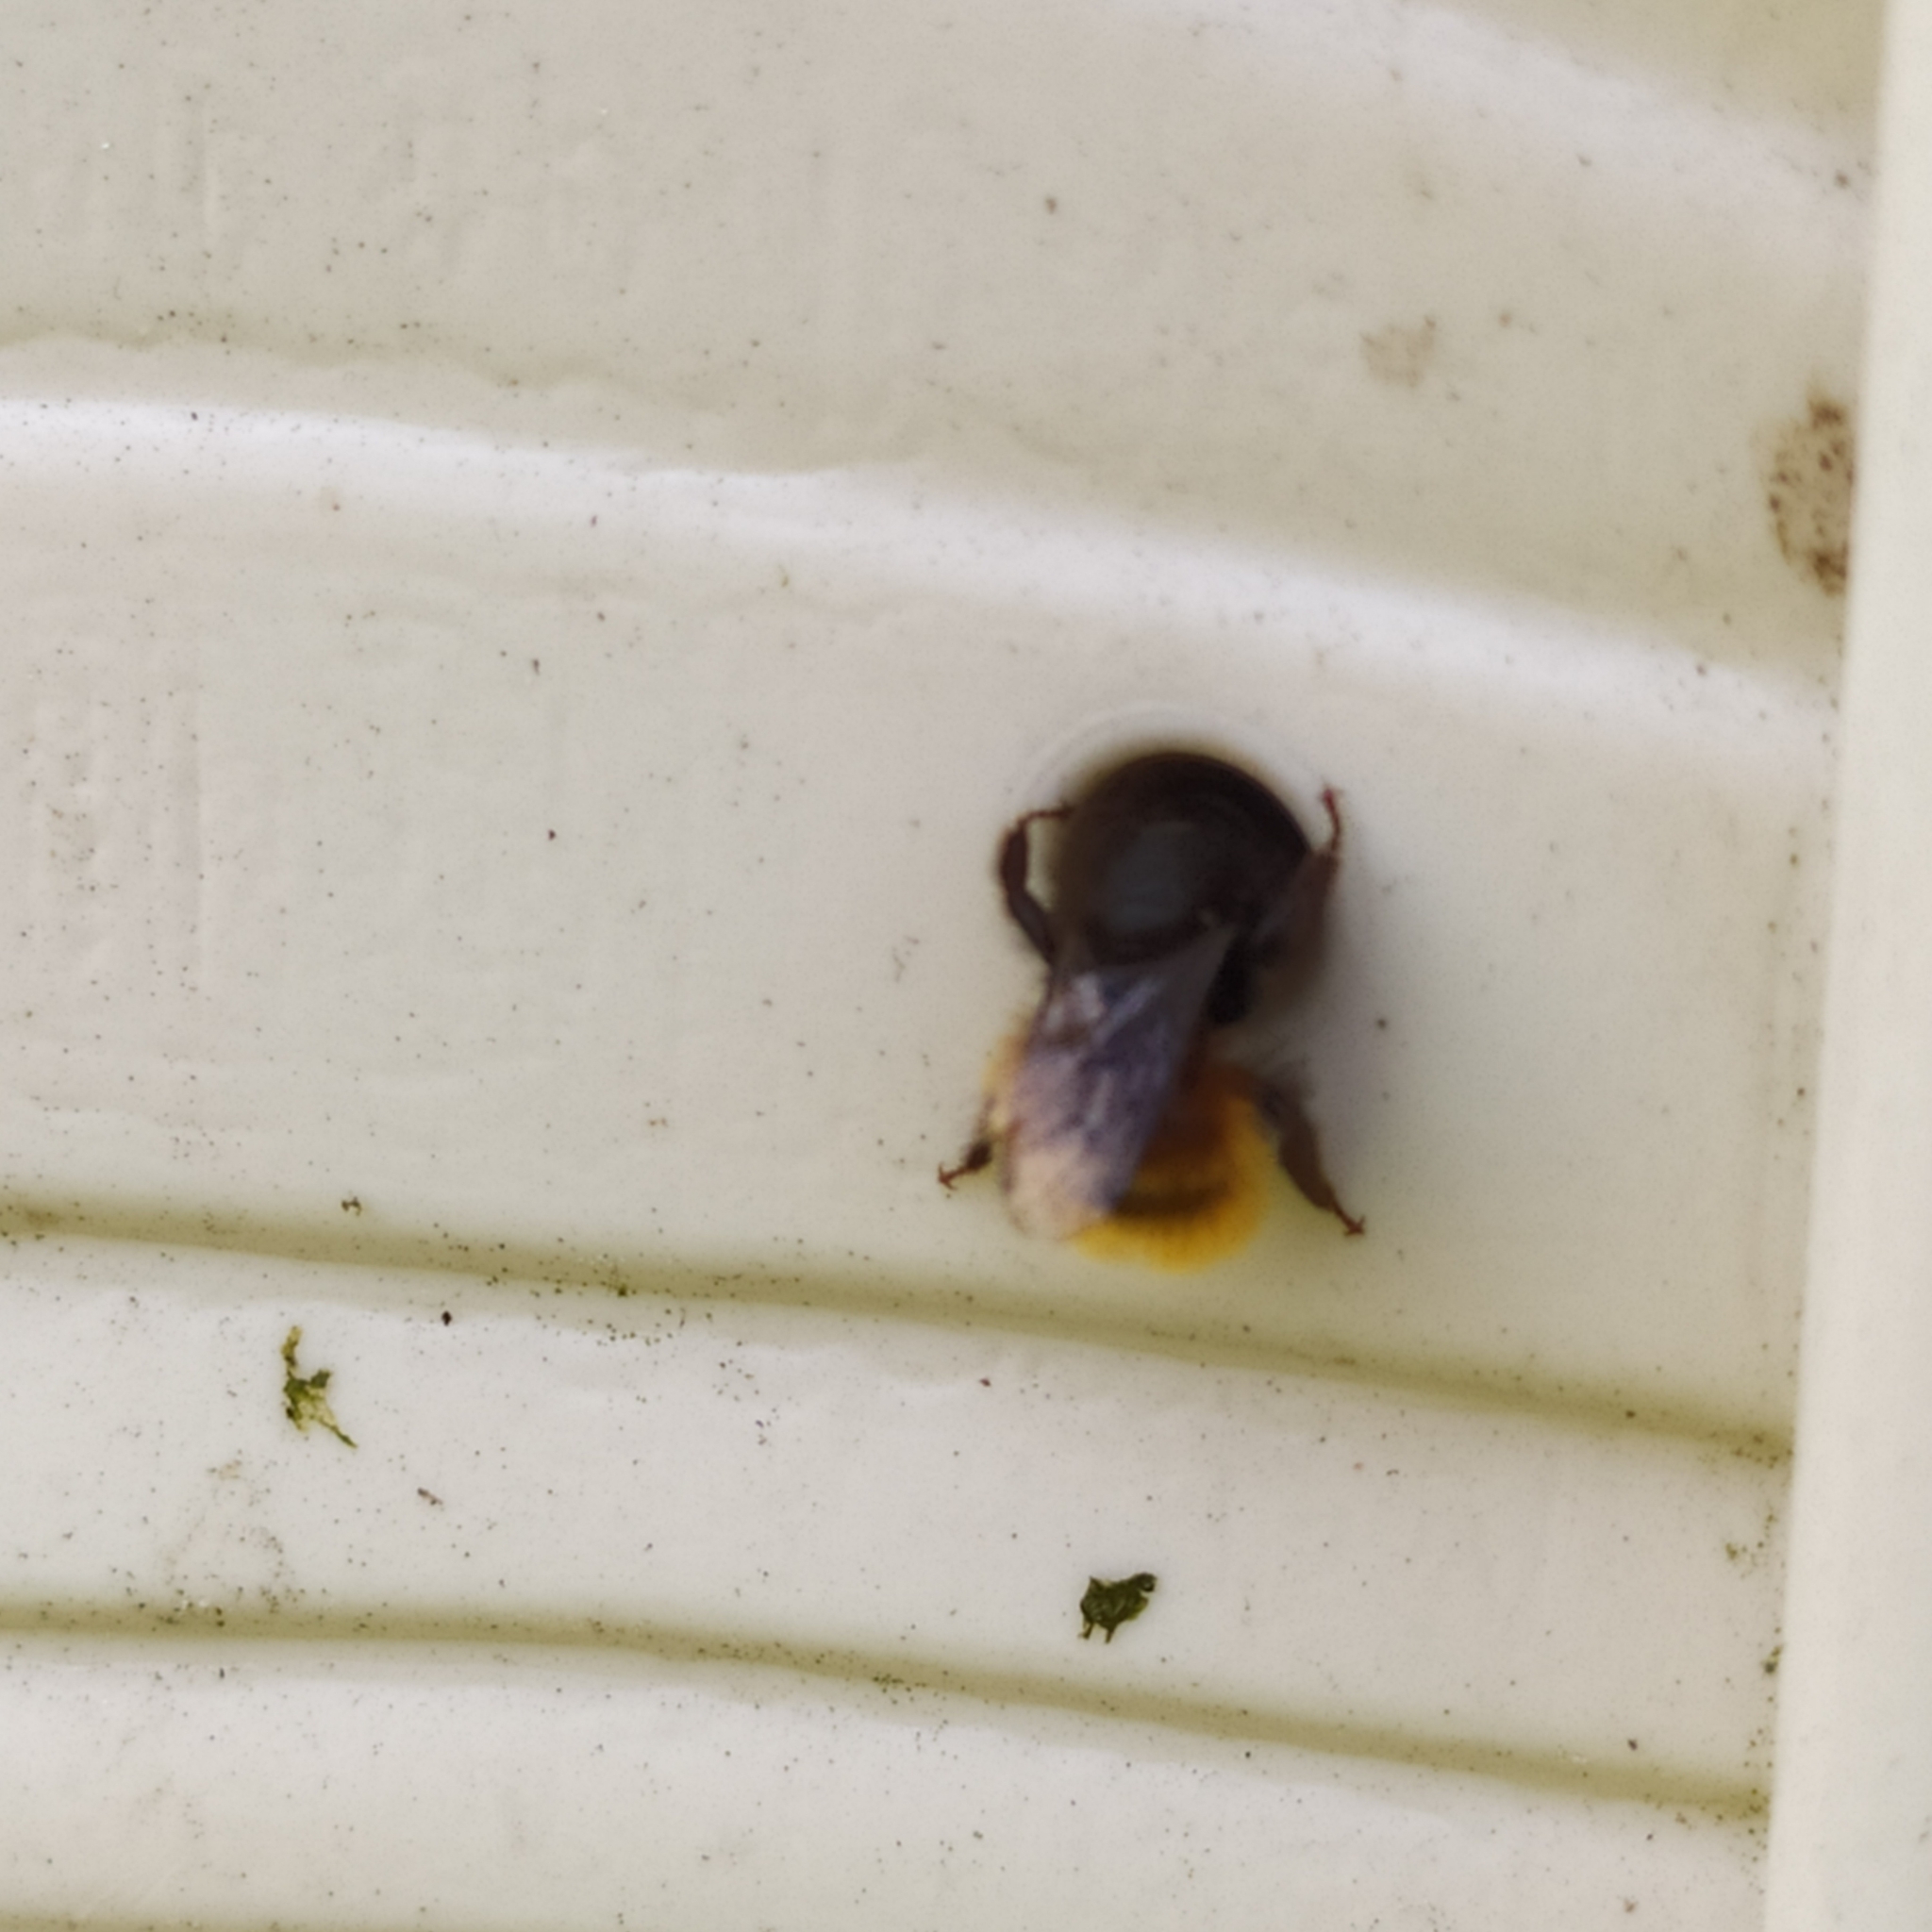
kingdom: Animalia
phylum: Arthropoda
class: Insecta
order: Hymenoptera
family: Megachilidae
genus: Osmia
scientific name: Osmia cornuta
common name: Mason bee
